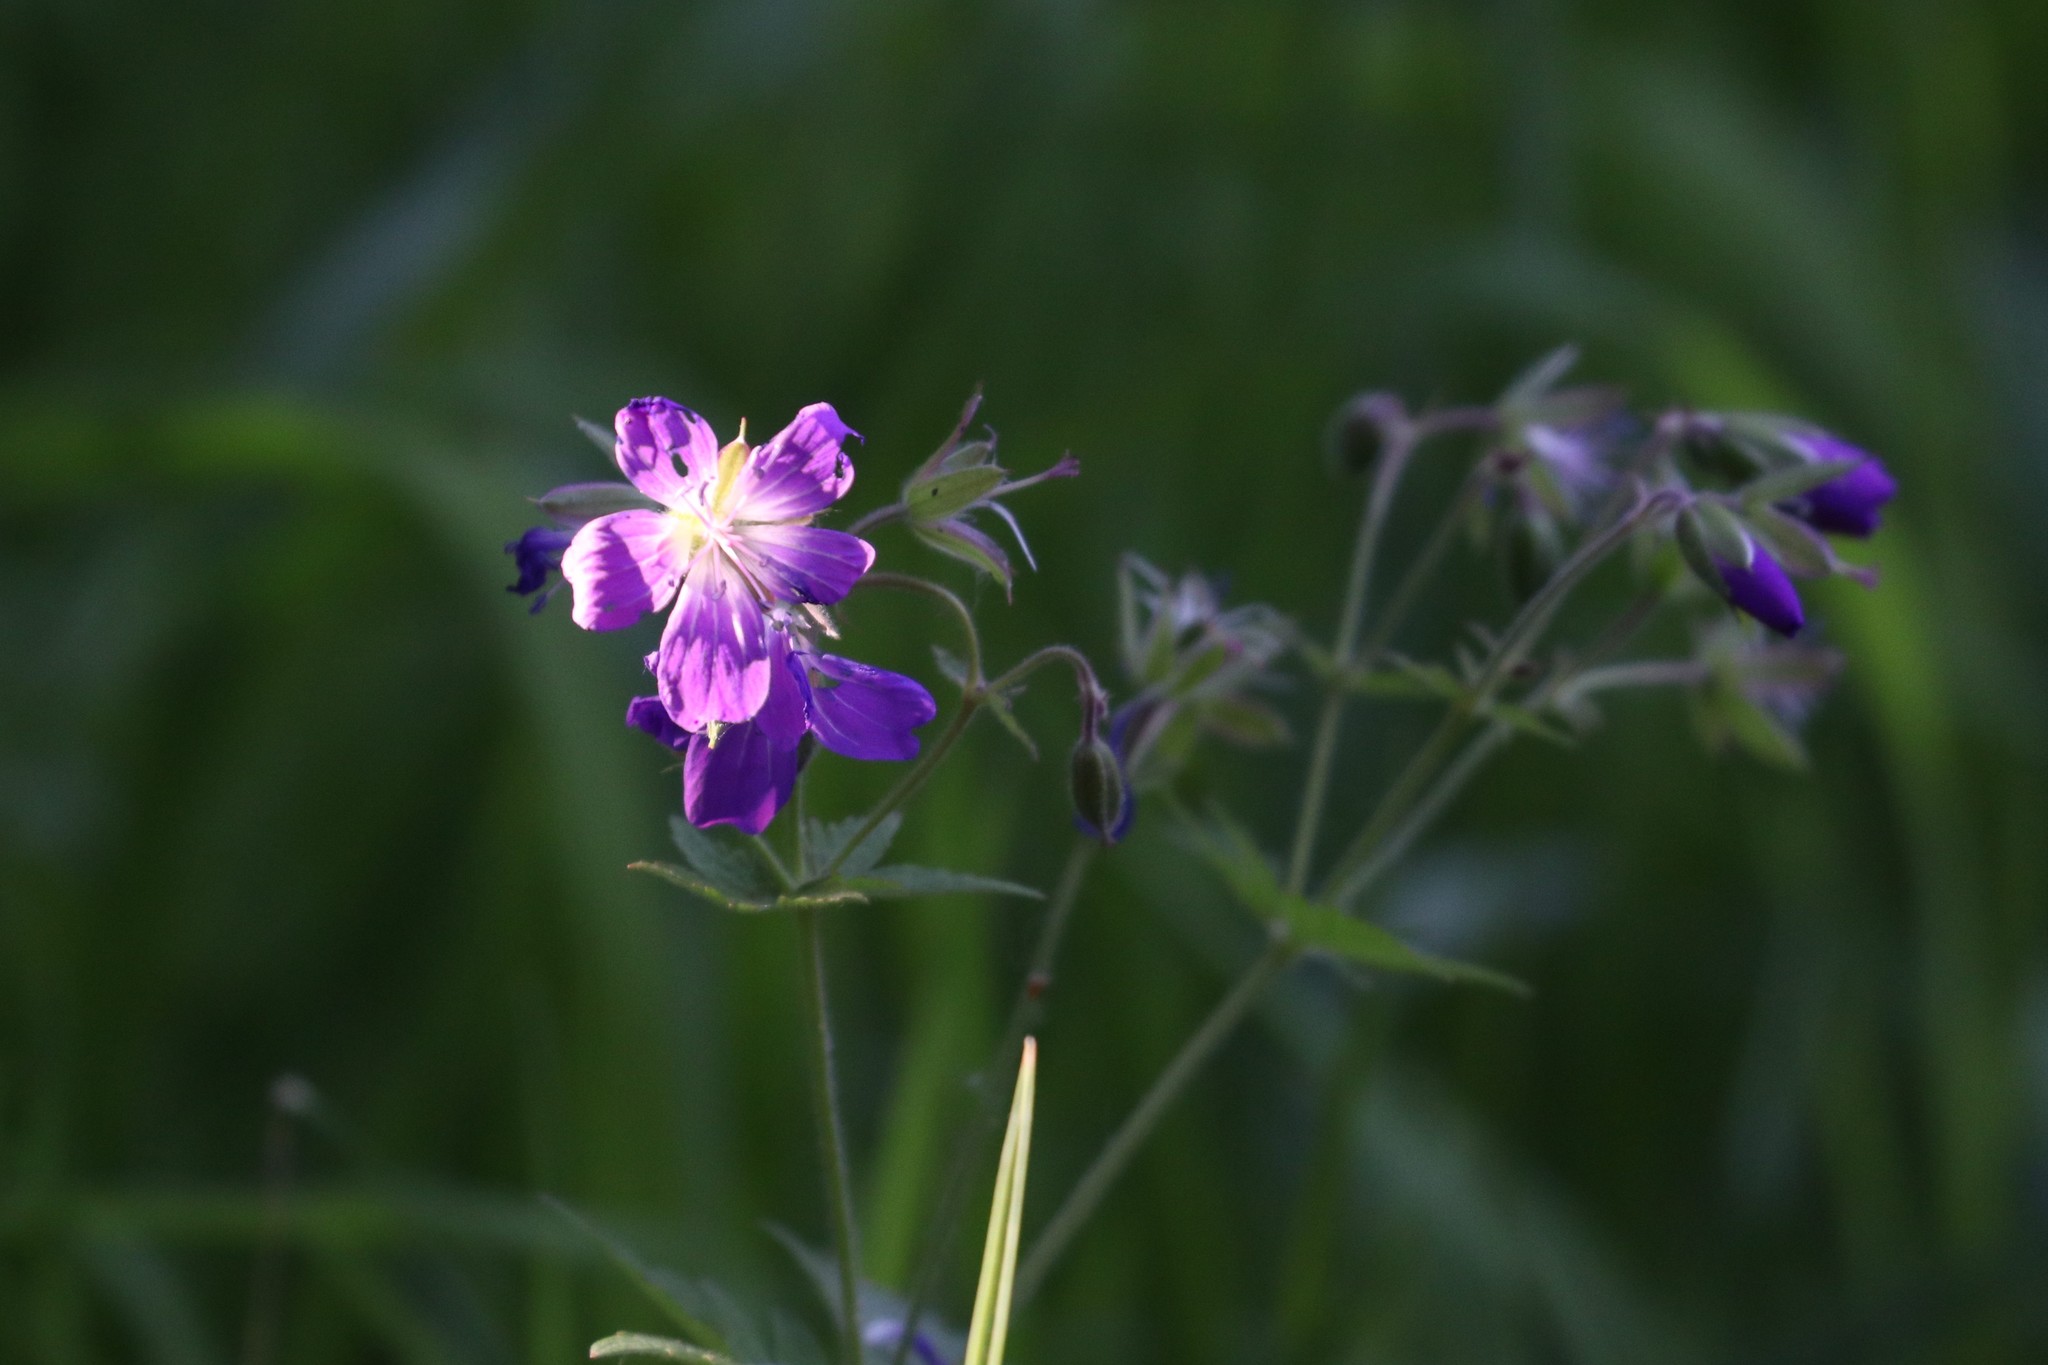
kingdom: Plantae
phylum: Tracheophyta
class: Magnoliopsida
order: Geraniales
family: Geraniaceae
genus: Geranium
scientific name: Geranium sylvaticum
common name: Wood crane's-bill
